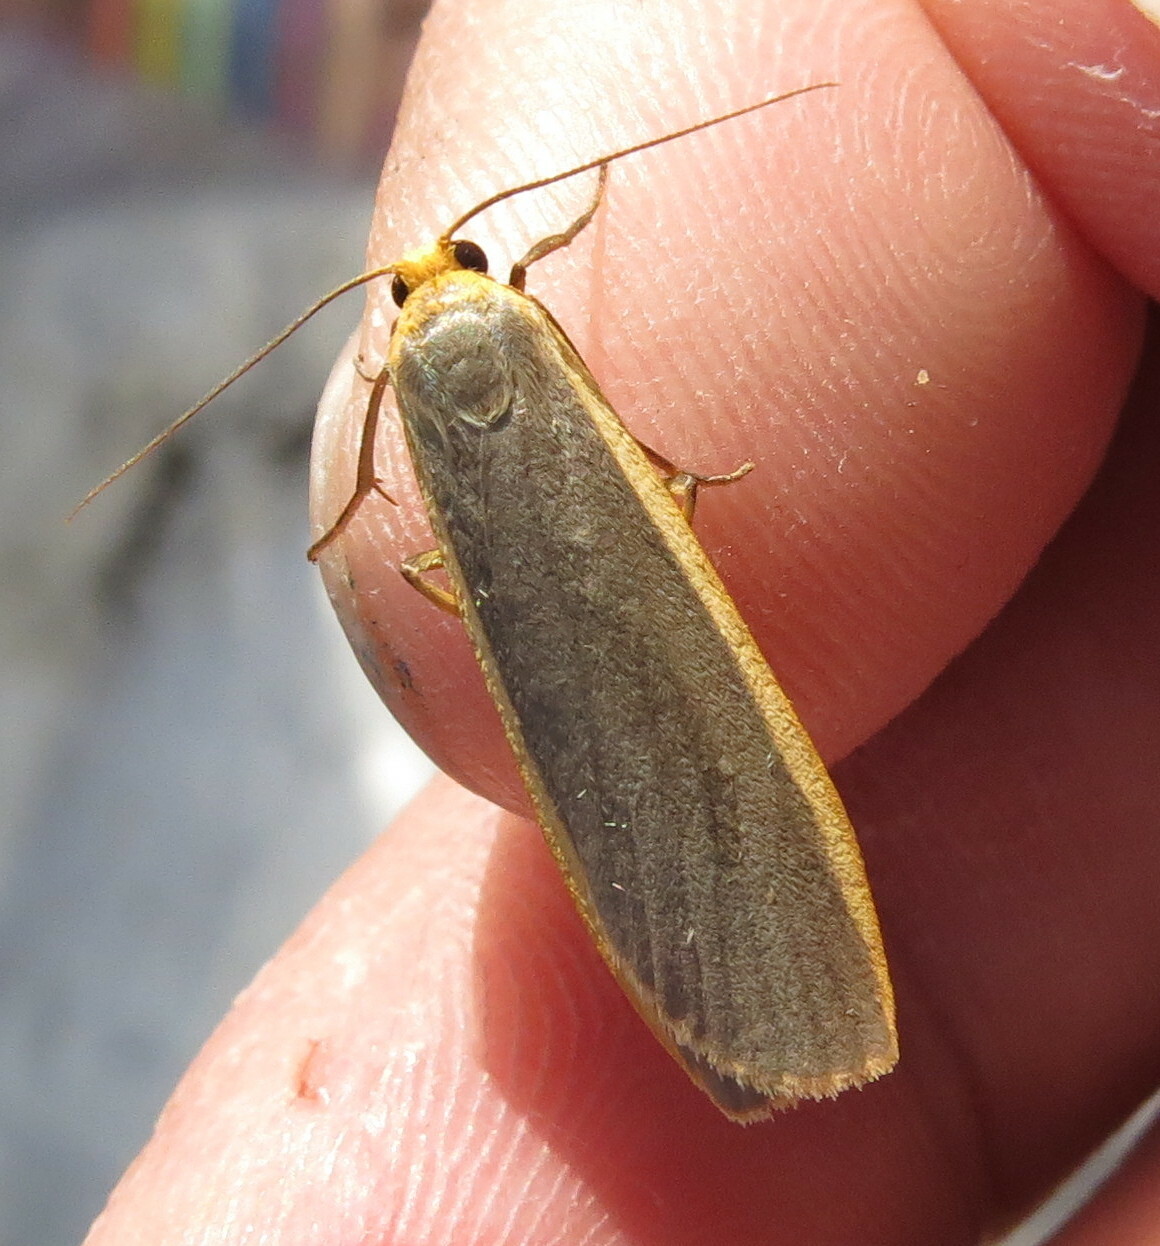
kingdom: Animalia
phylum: Arthropoda
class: Insecta
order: Lepidoptera
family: Erebidae
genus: Nyea
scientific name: Nyea lurideola
